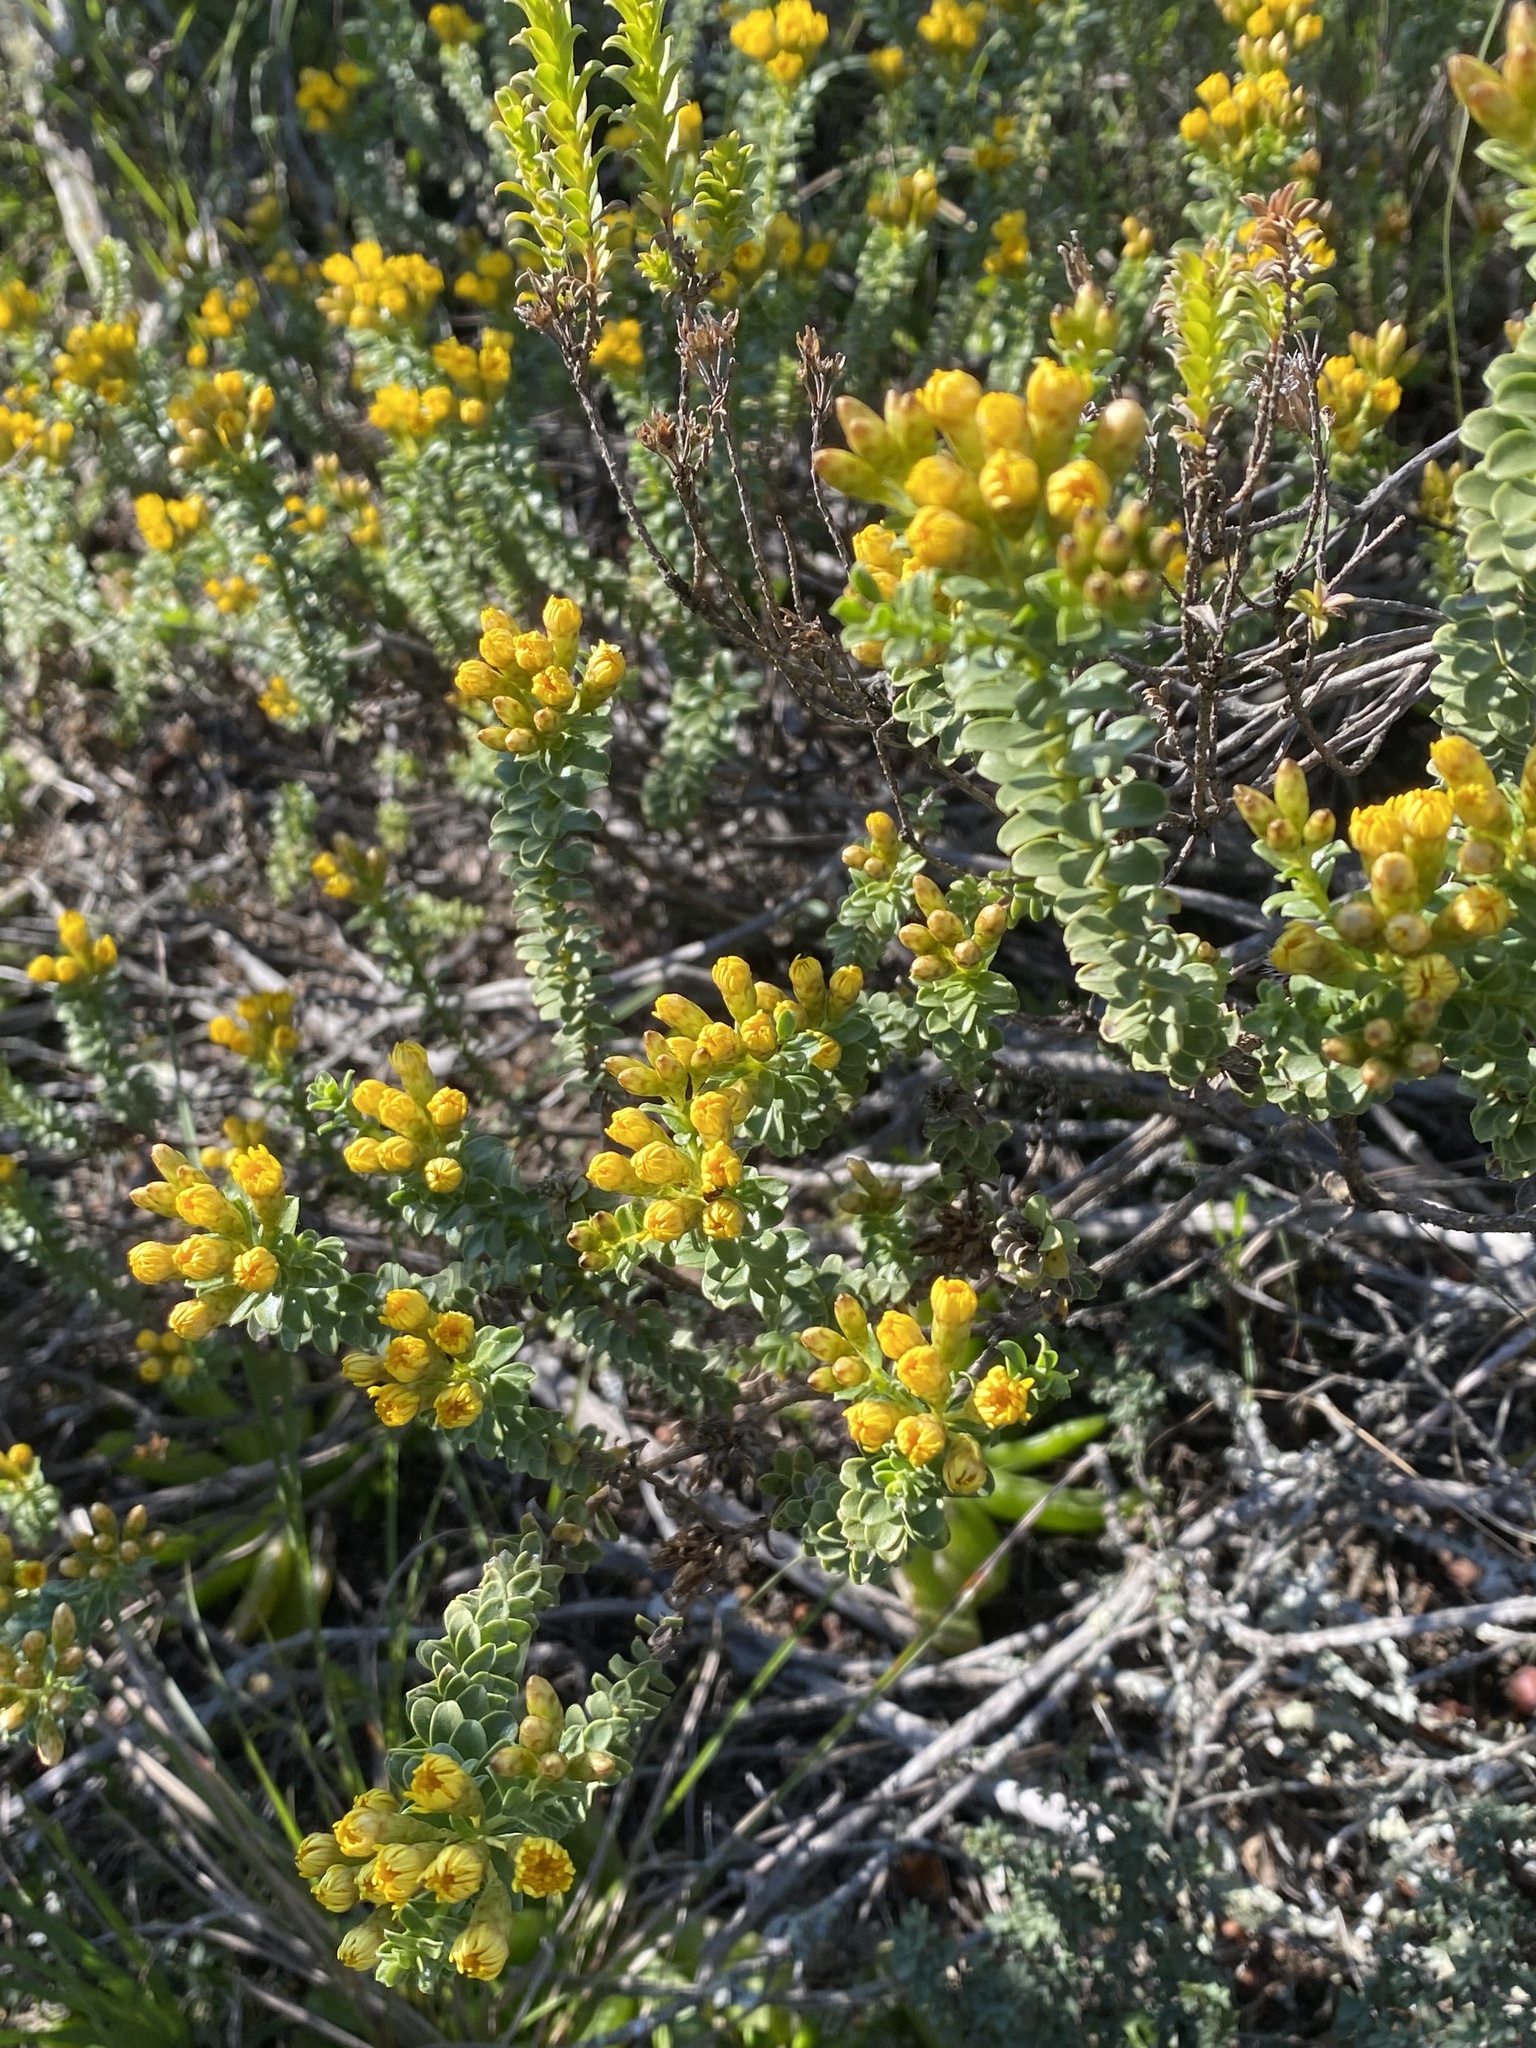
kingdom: Plantae
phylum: Tracheophyta
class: Magnoliopsida
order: Asterales
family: Asteraceae
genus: Oedera
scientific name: Oedera squarrosa
